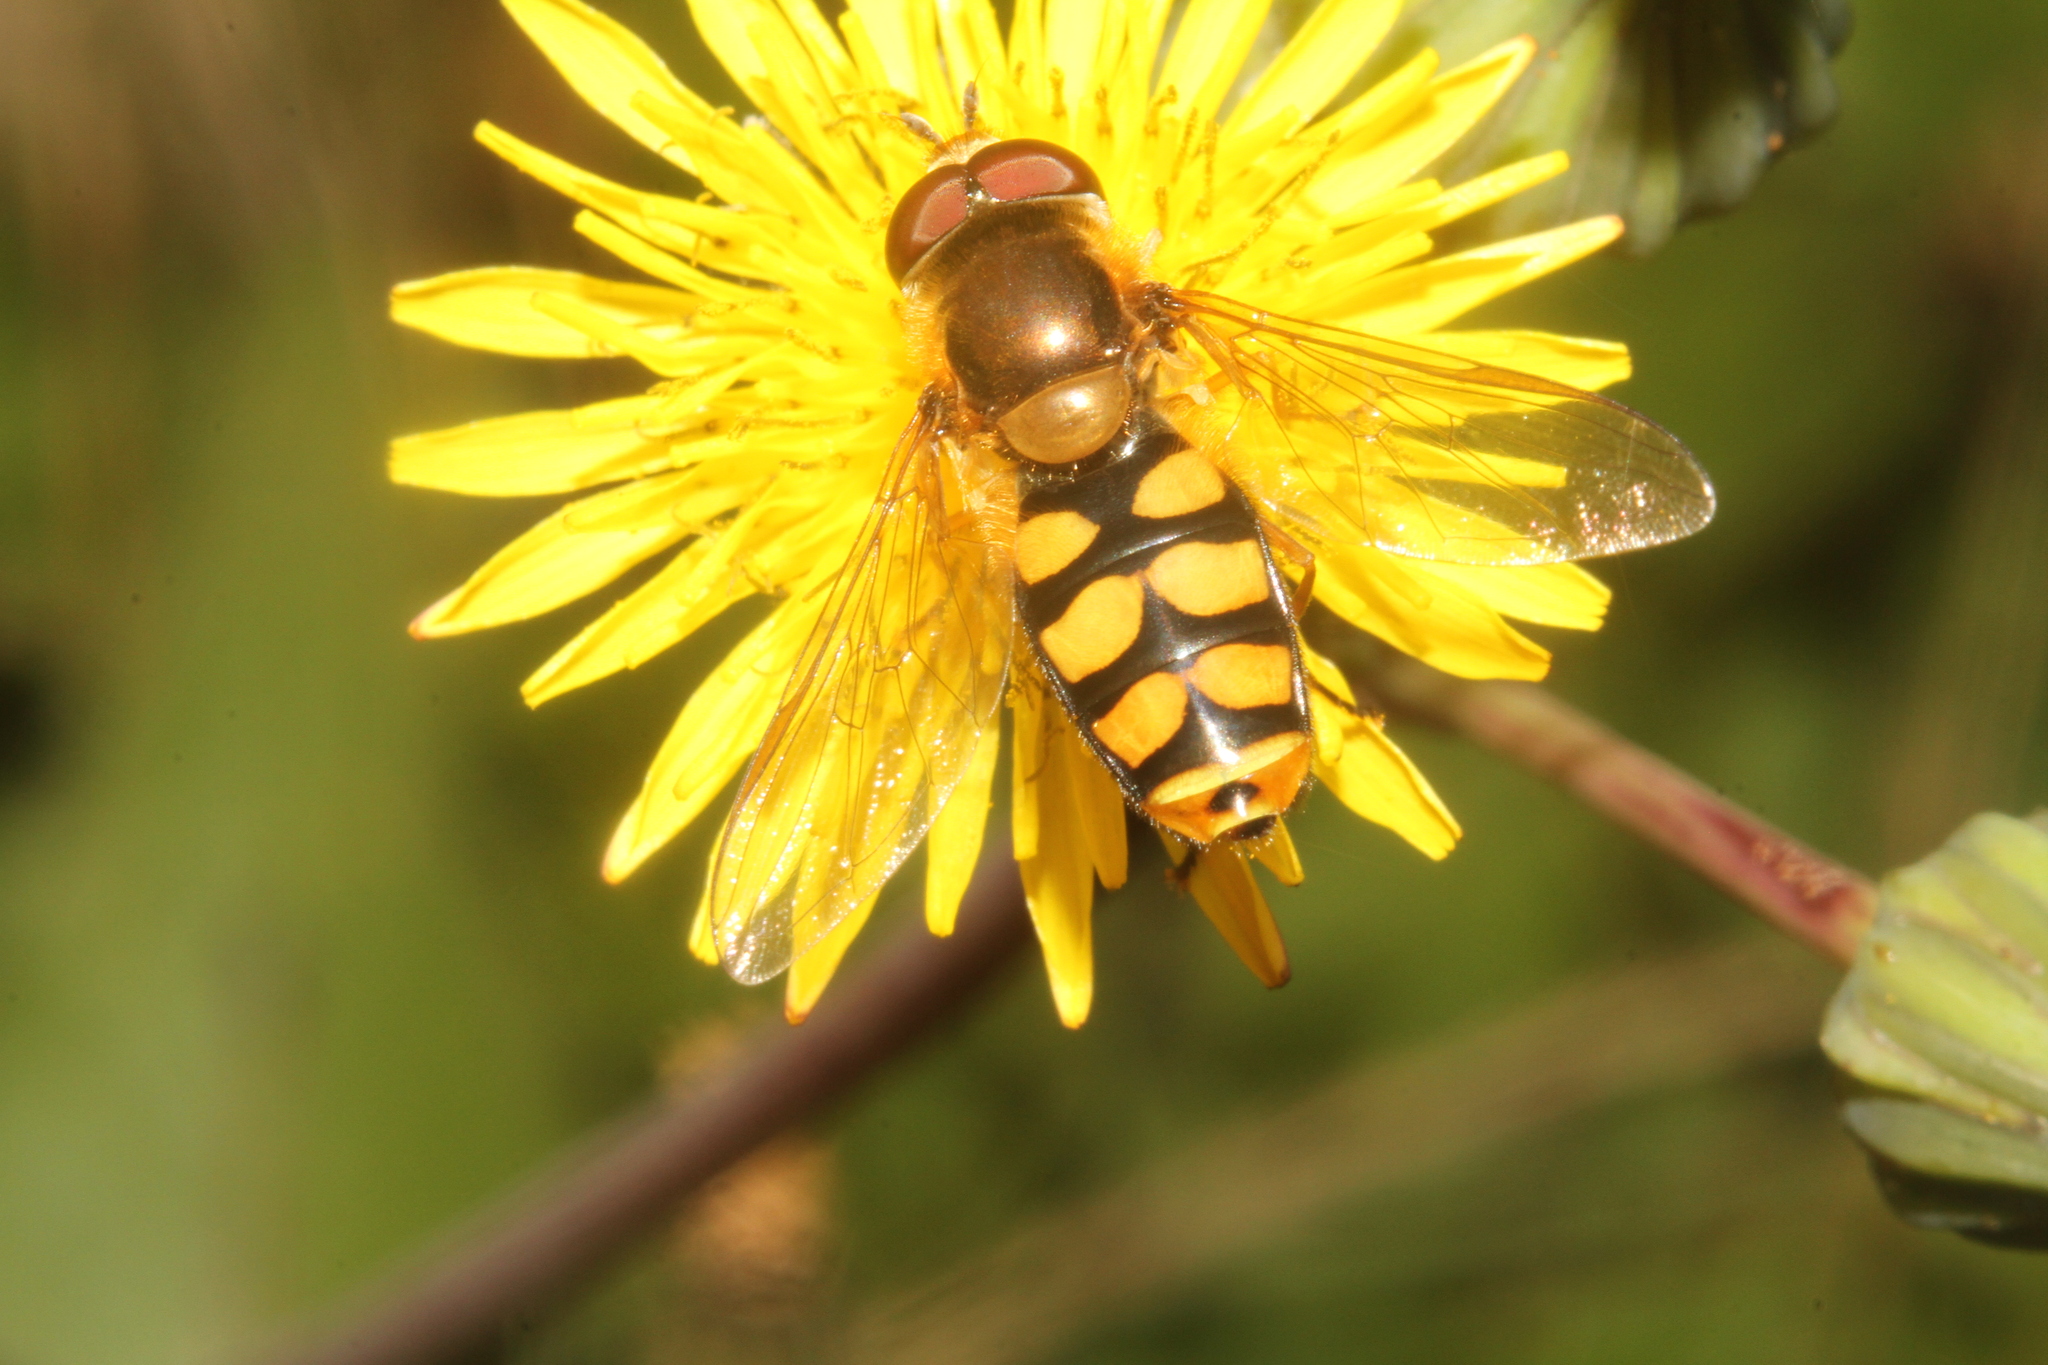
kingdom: Animalia
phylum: Arthropoda
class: Insecta
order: Diptera
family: Syrphidae
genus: Eupeodes
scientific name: Eupeodes
